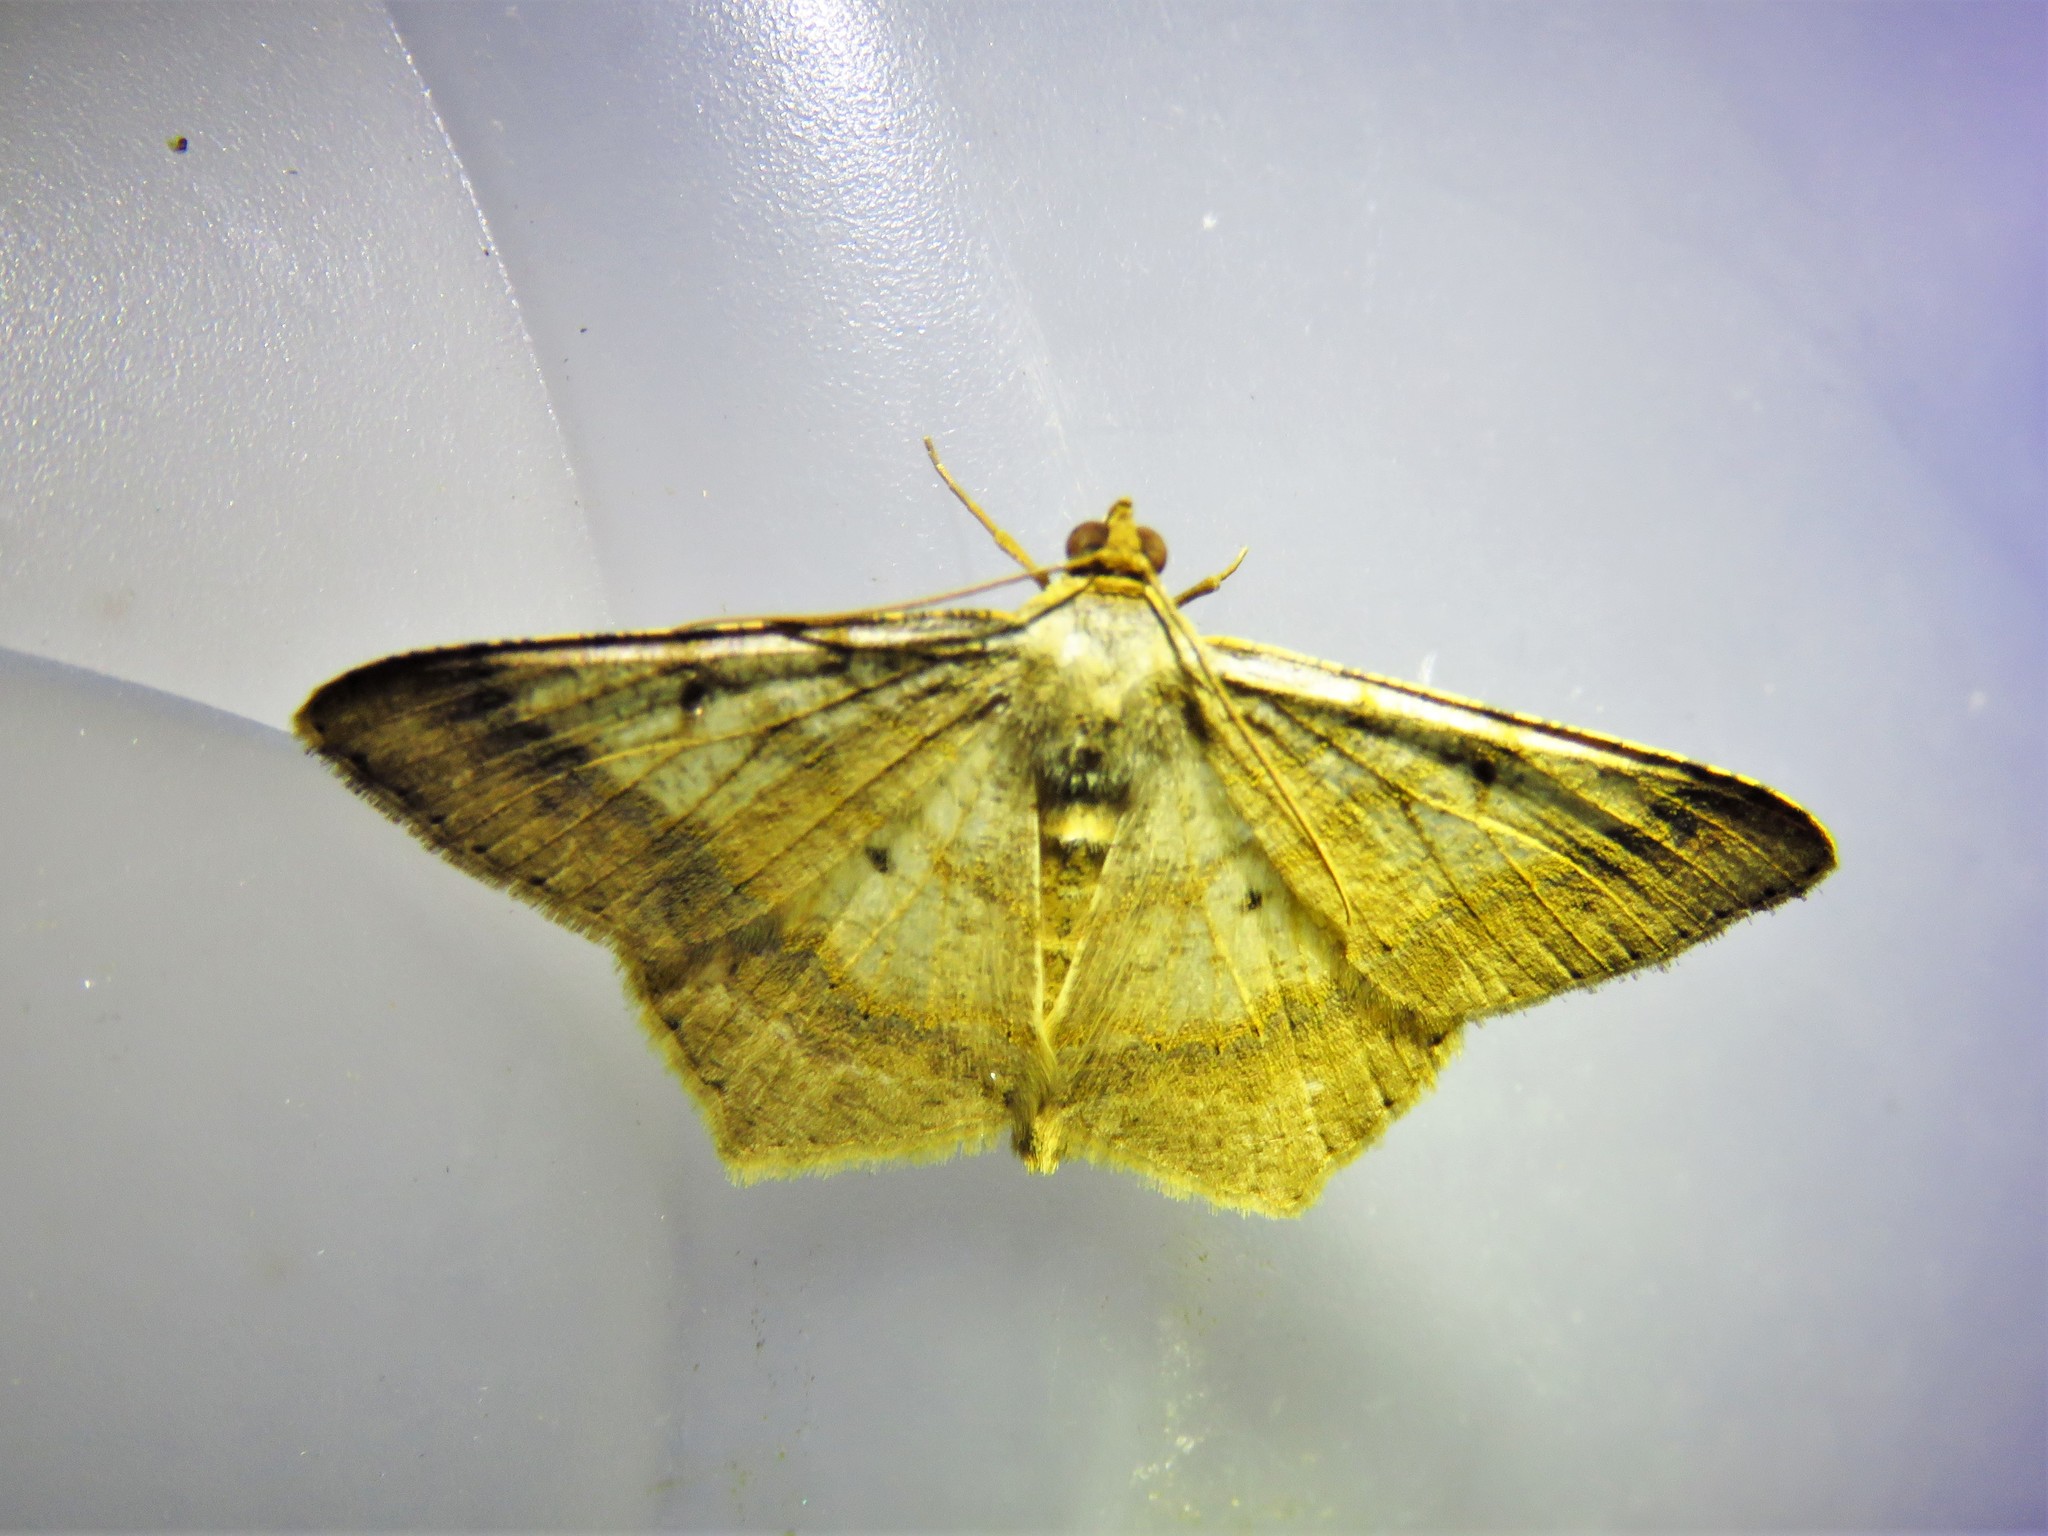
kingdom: Animalia
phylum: Arthropoda
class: Insecta
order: Lepidoptera
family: Geometridae
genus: Macaria
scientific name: Macaria abydata
